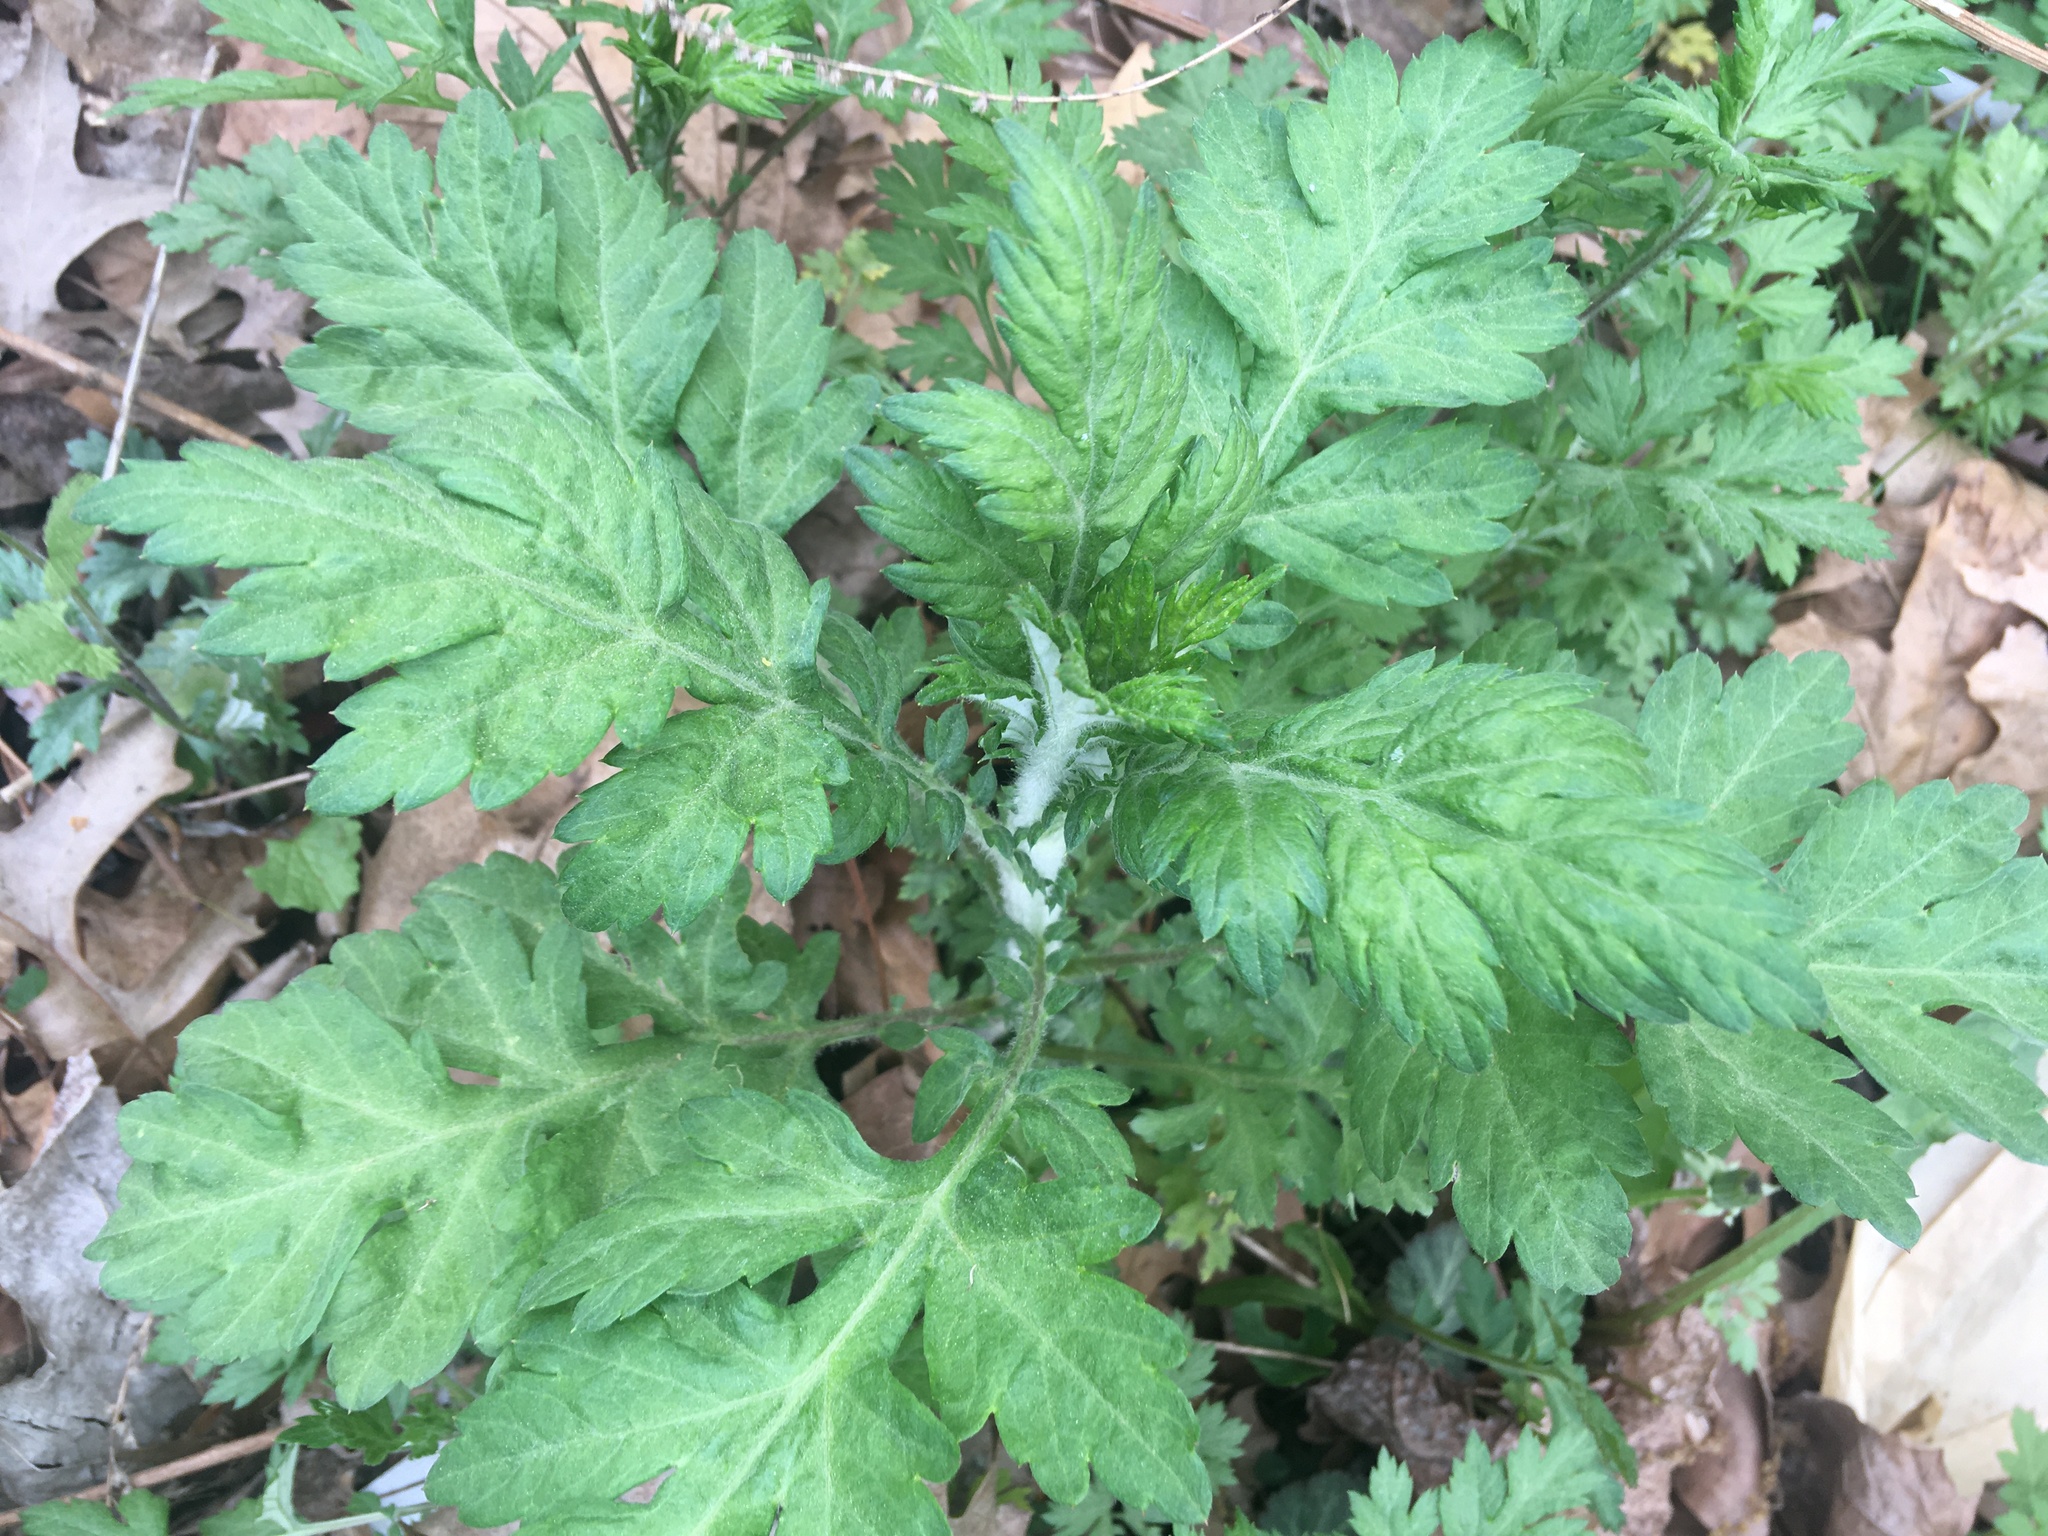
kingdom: Plantae
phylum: Tracheophyta
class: Magnoliopsida
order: Asterales
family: Asteraceae
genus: Artemisia
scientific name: Artemisia vulgaris
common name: Mugwort
